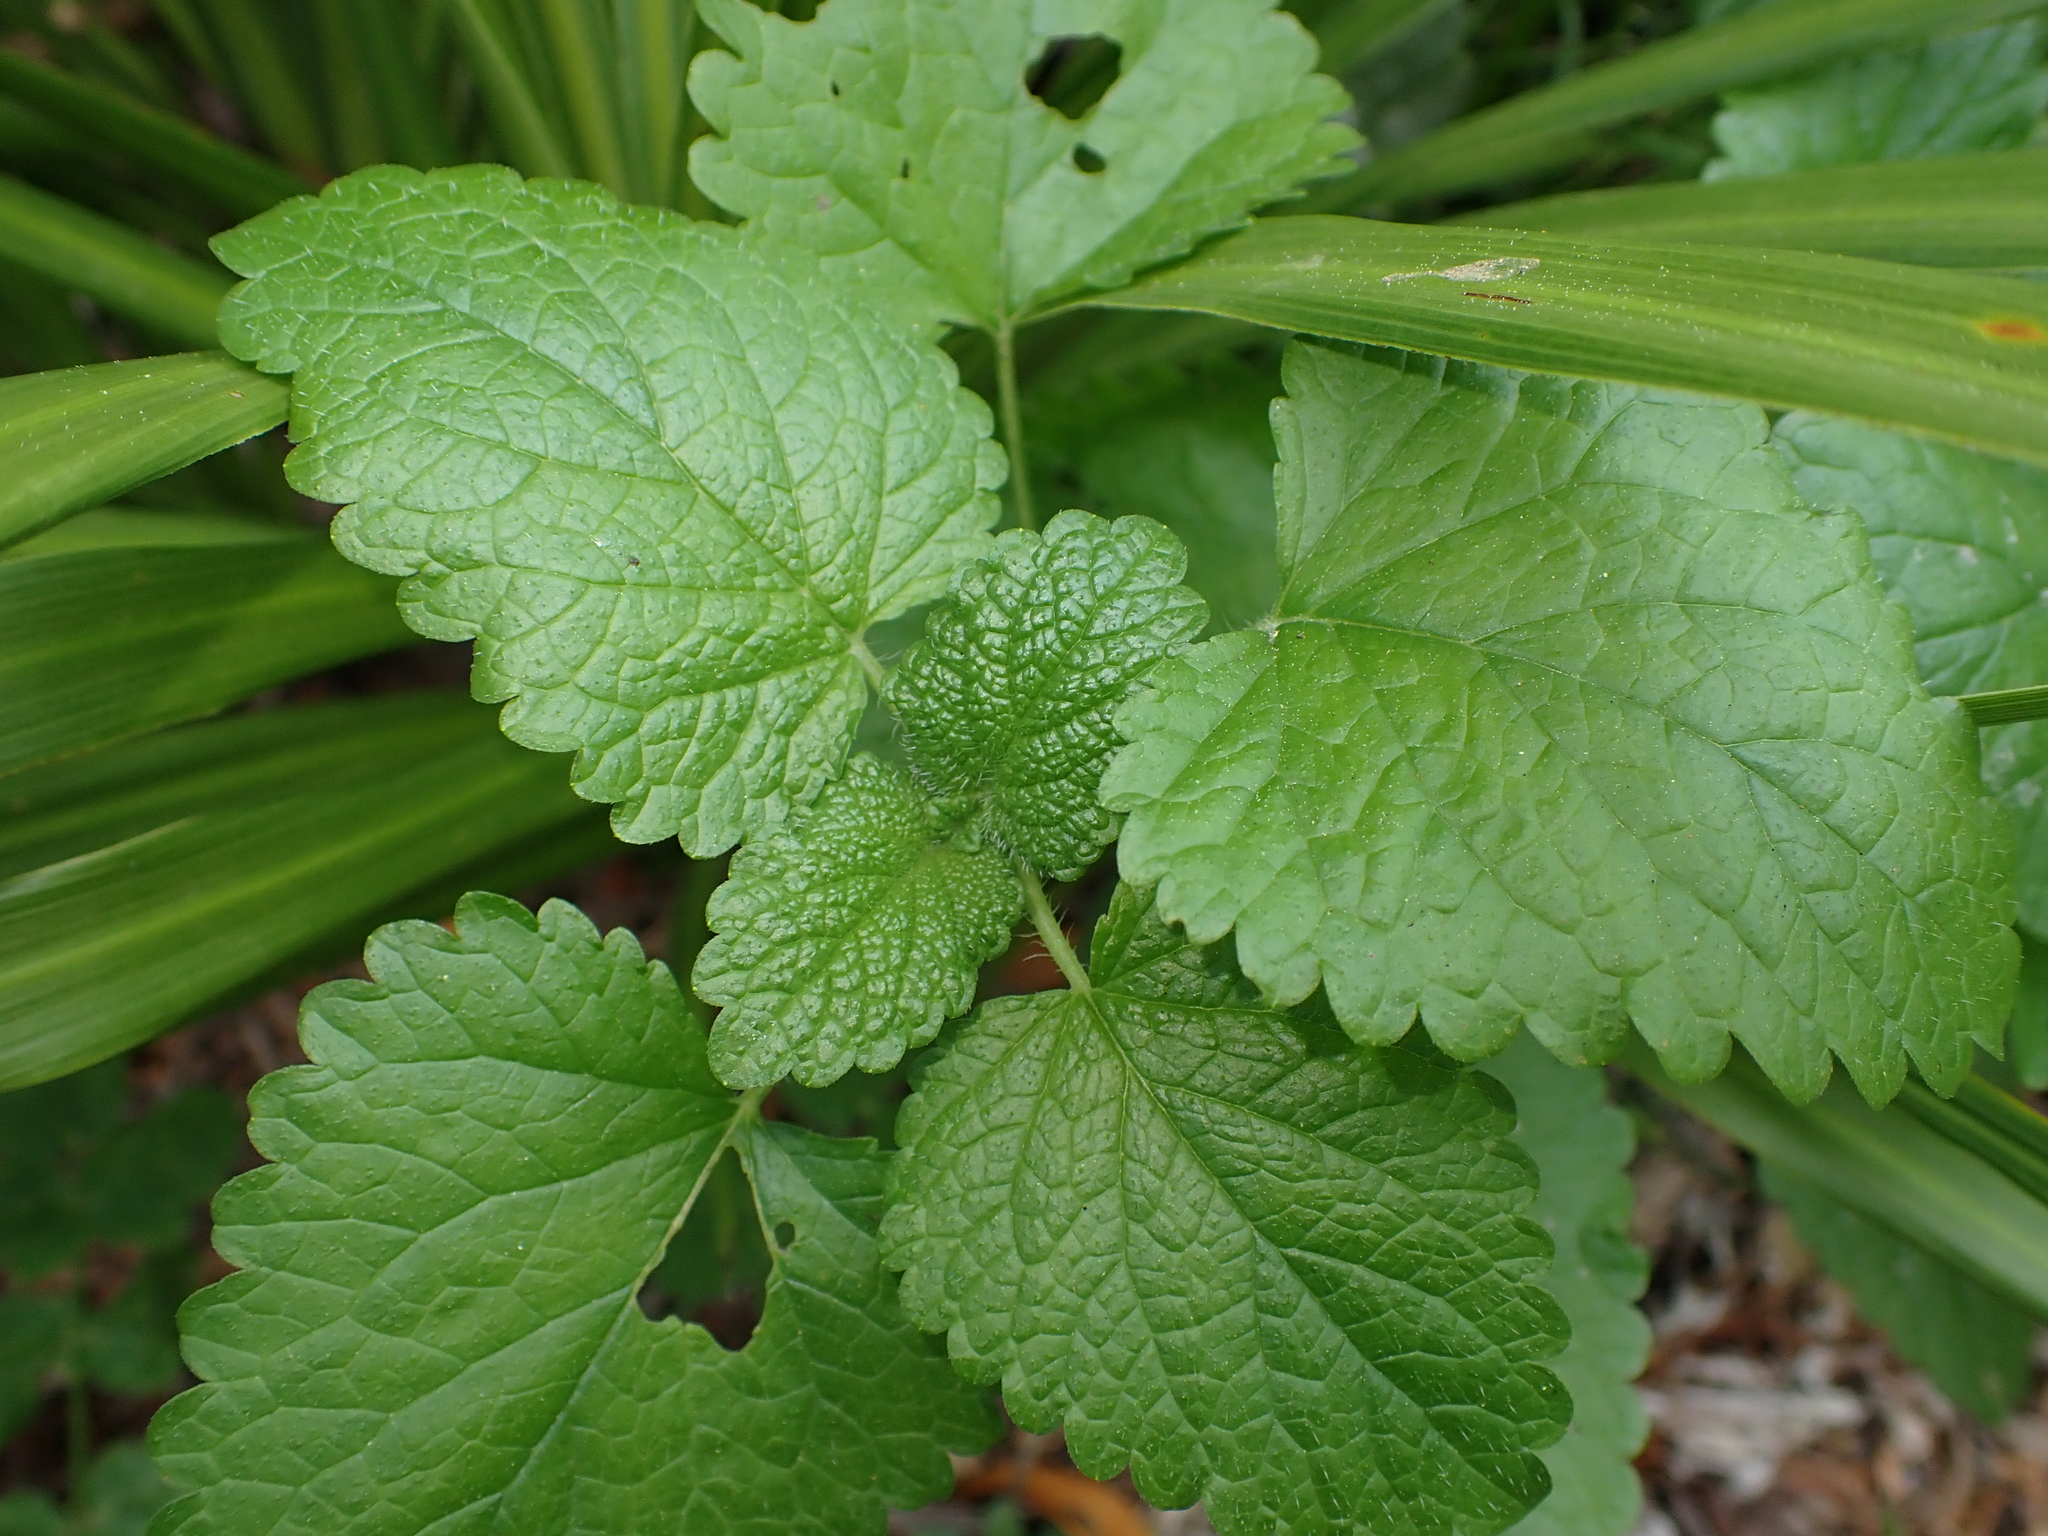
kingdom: Plantae
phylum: Tracheophyta
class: Magnoliopsida
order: Lamiales
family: Lamiaceae
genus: Melissa
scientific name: Melissa officinalis
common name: Balm
